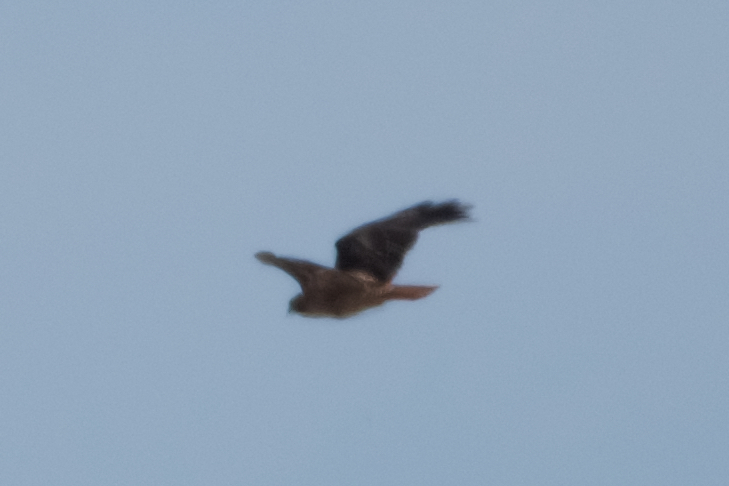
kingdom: Animalia
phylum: Chordata
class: Aves
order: Accipitriformes
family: Accipitridae
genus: Buteo
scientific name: Buteo jamaicensis
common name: Red-tailed hawk
